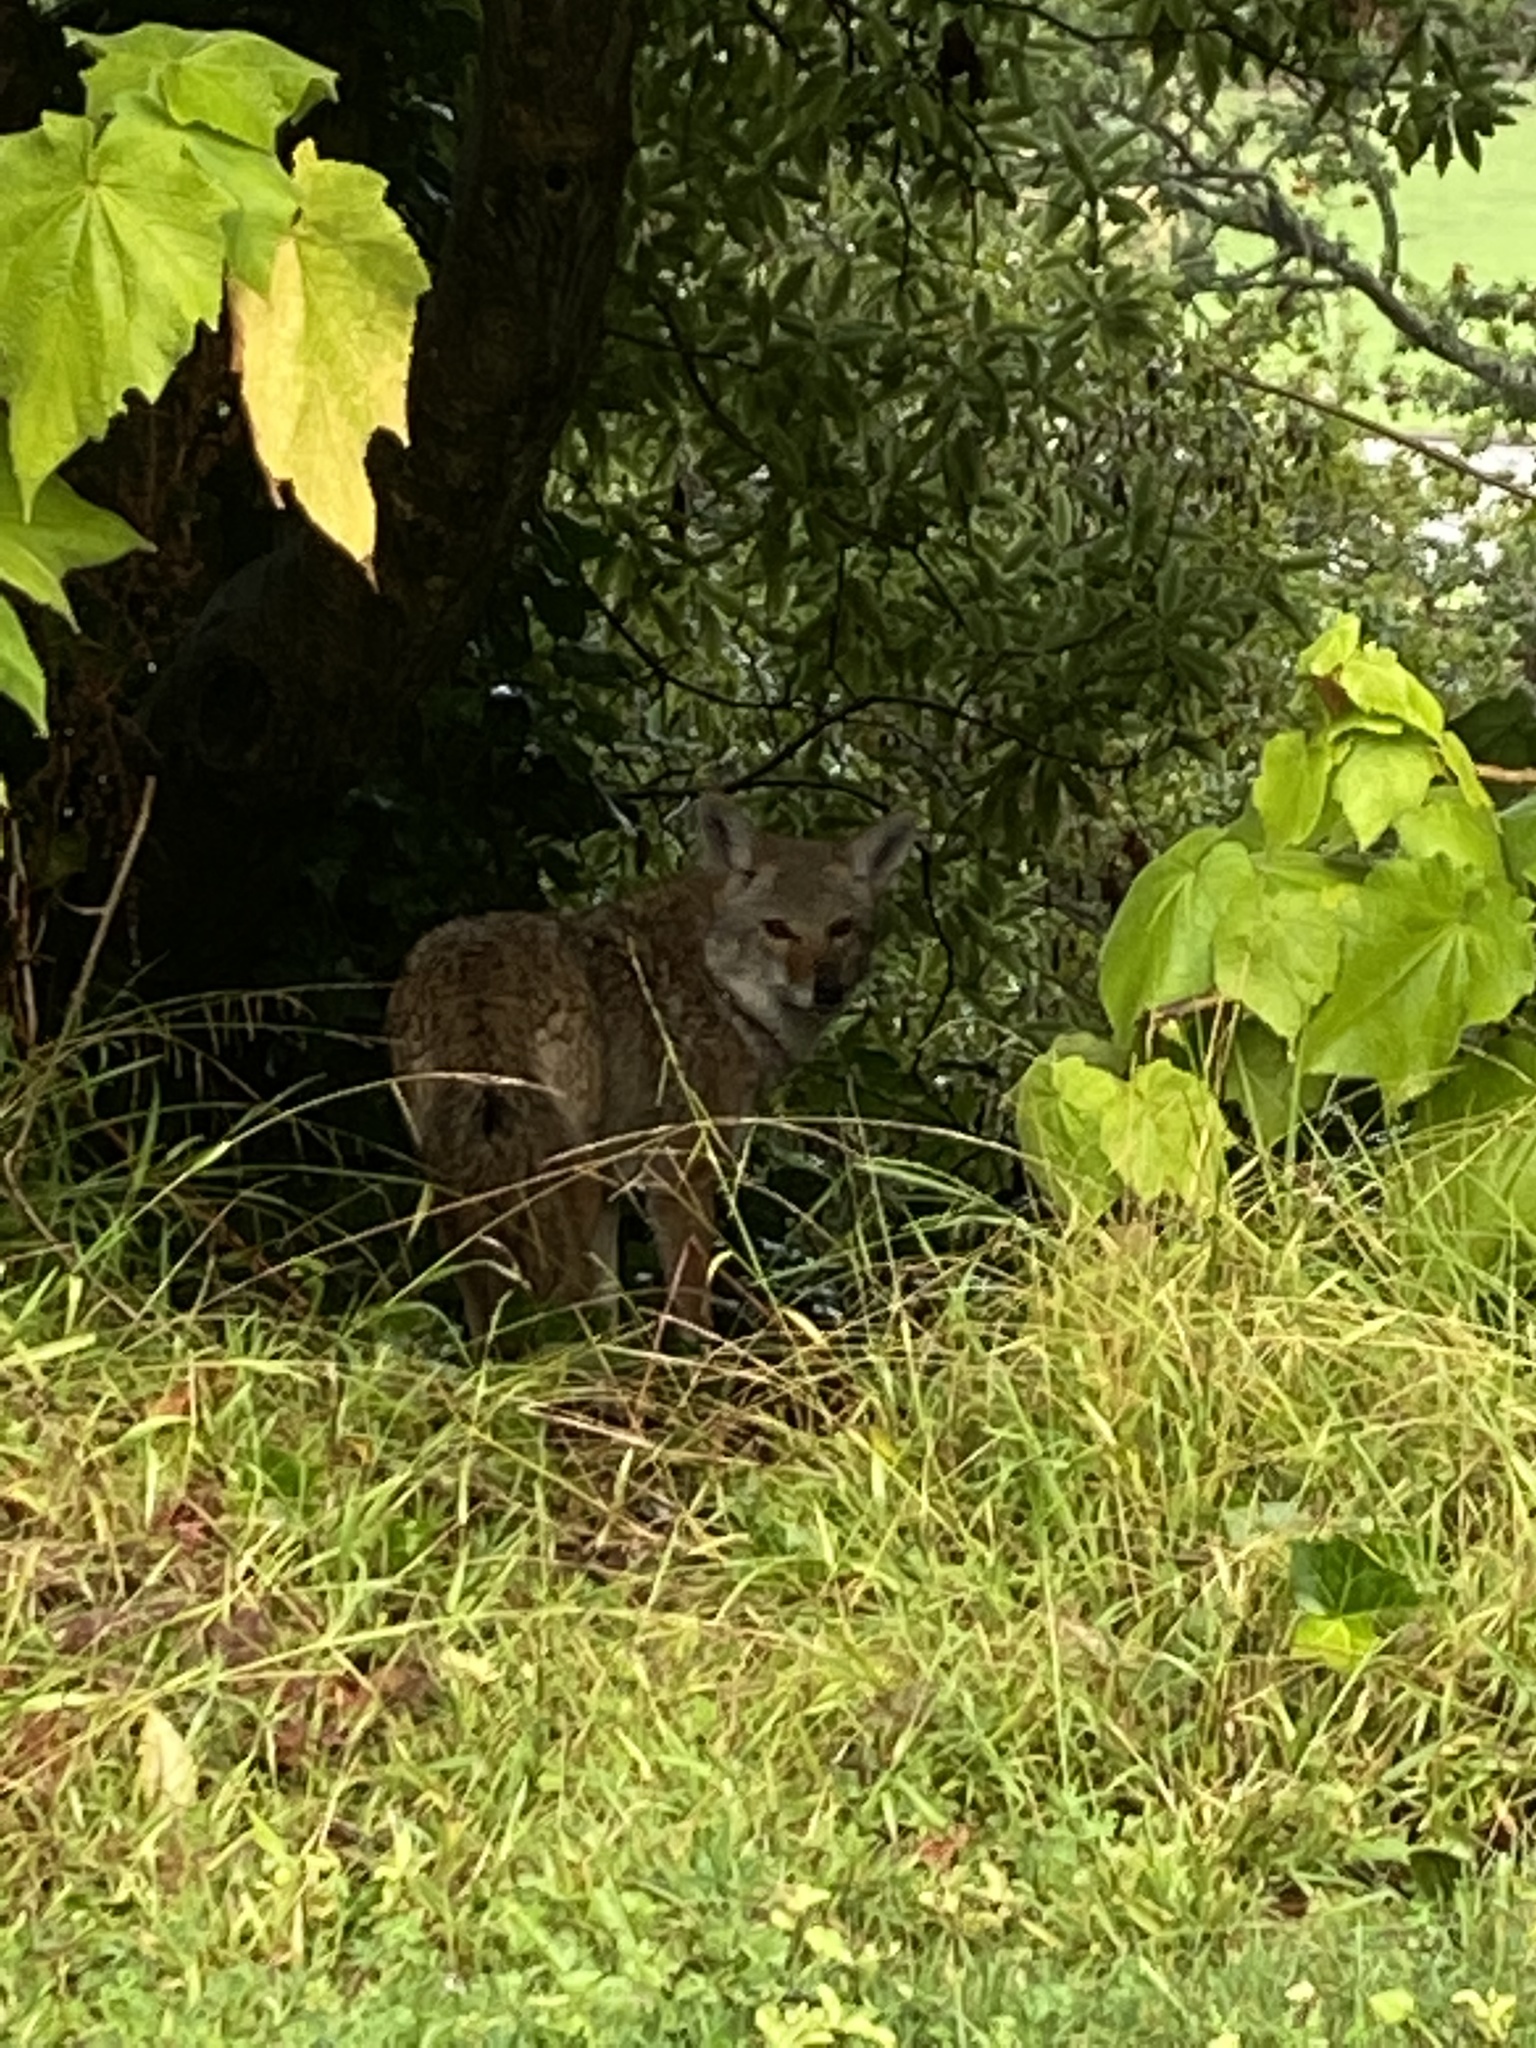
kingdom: Animalia
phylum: Chordata
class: Mammalia
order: Carnivora
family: Canidae
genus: Canis
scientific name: Canis latrans
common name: Coyote
